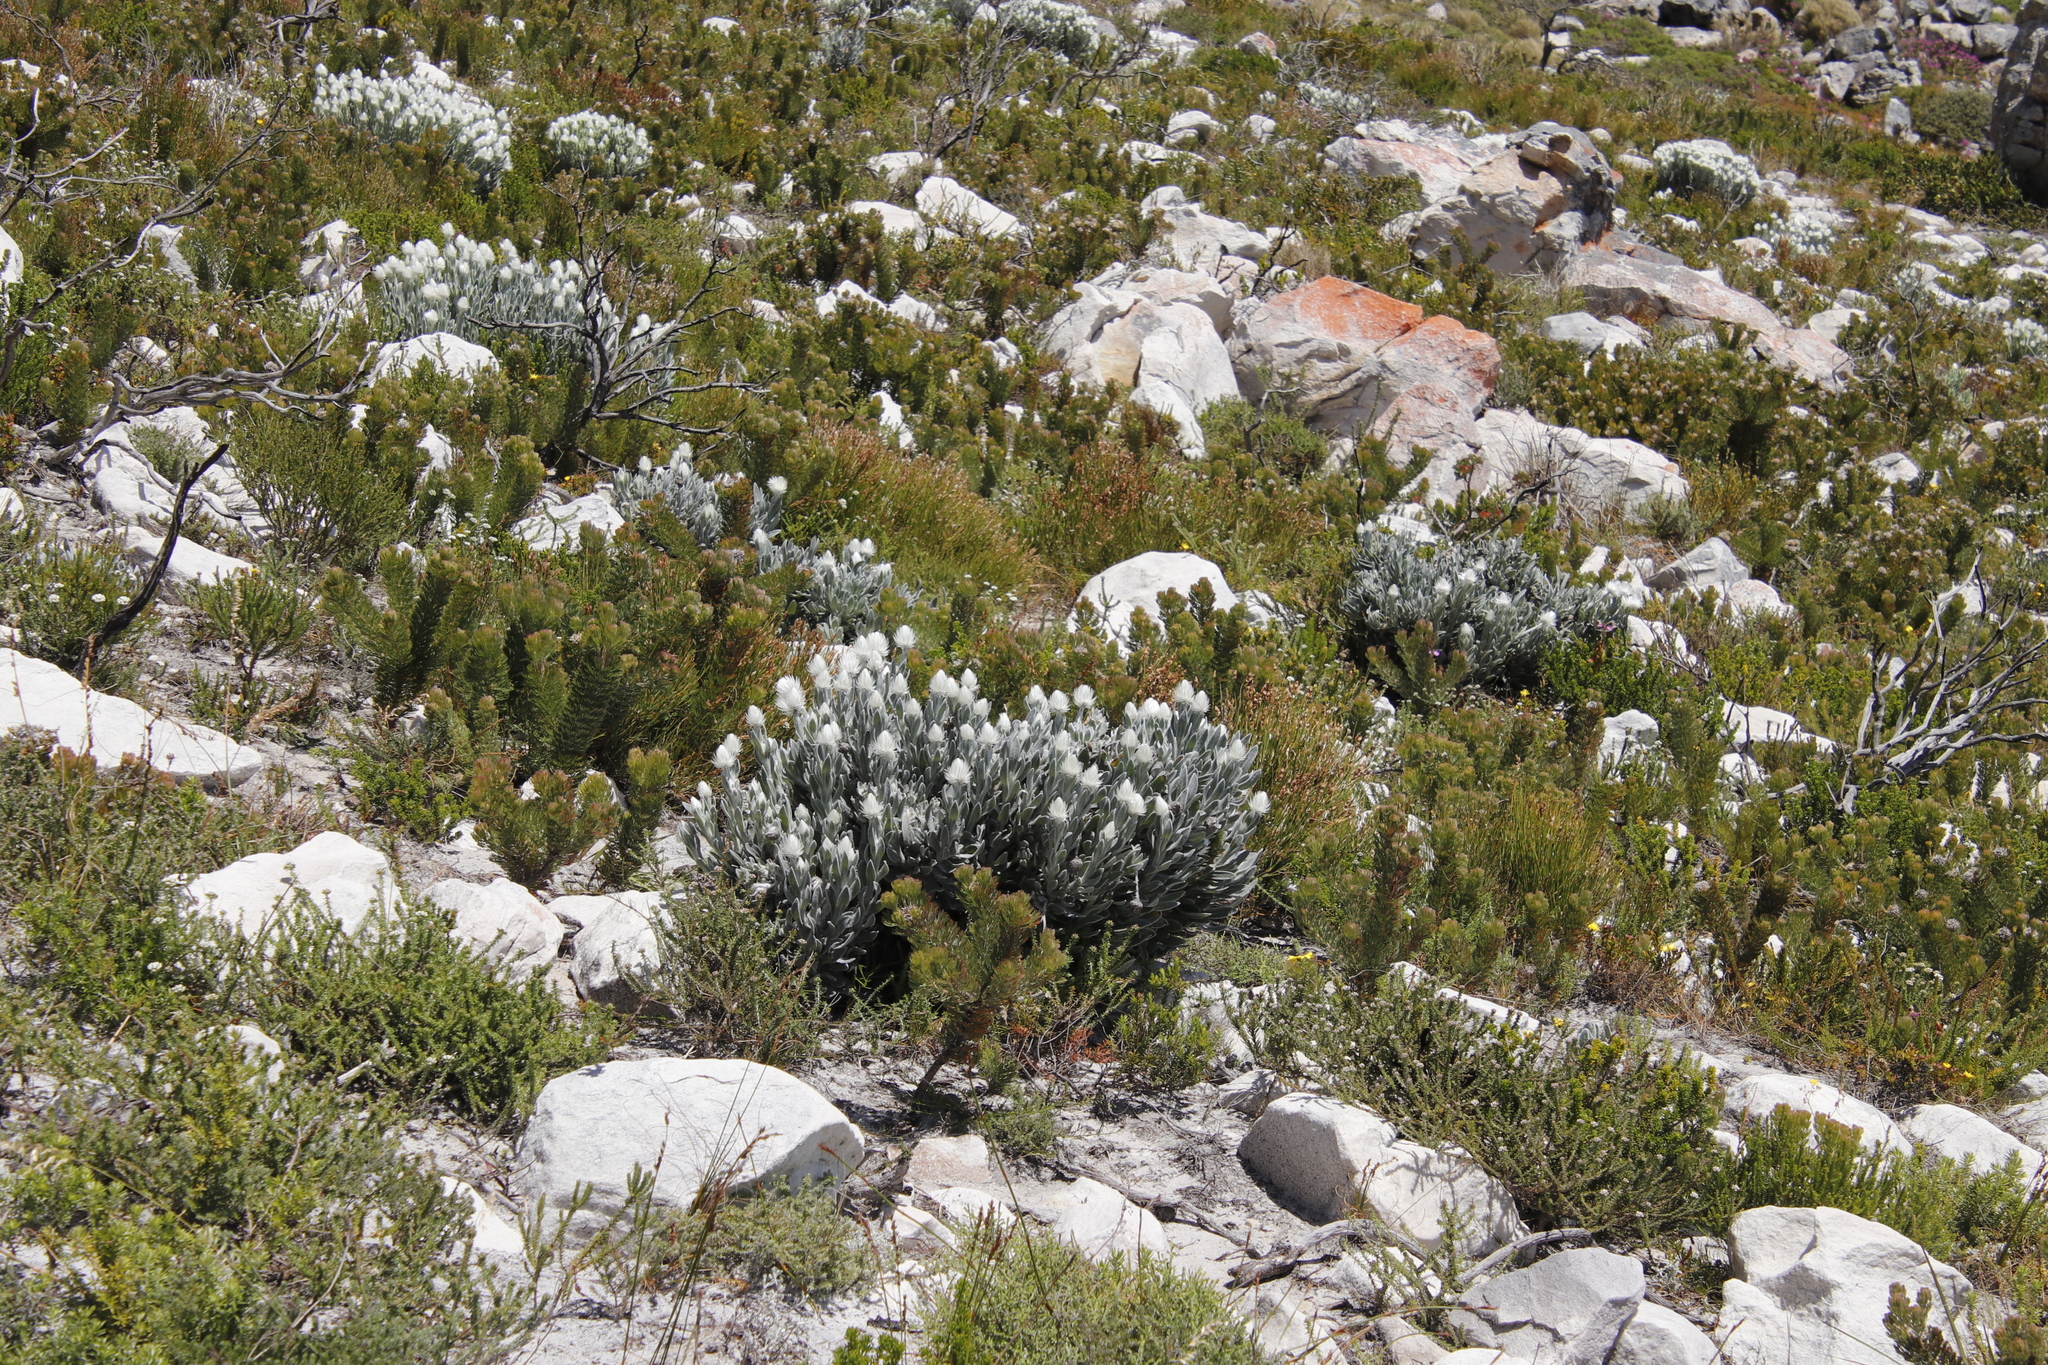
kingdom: Plantae
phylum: Tracheophyta
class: Magnoliopsida
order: Asterales
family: Asteraceae
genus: Syncarpha
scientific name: Syncarpha vestita
